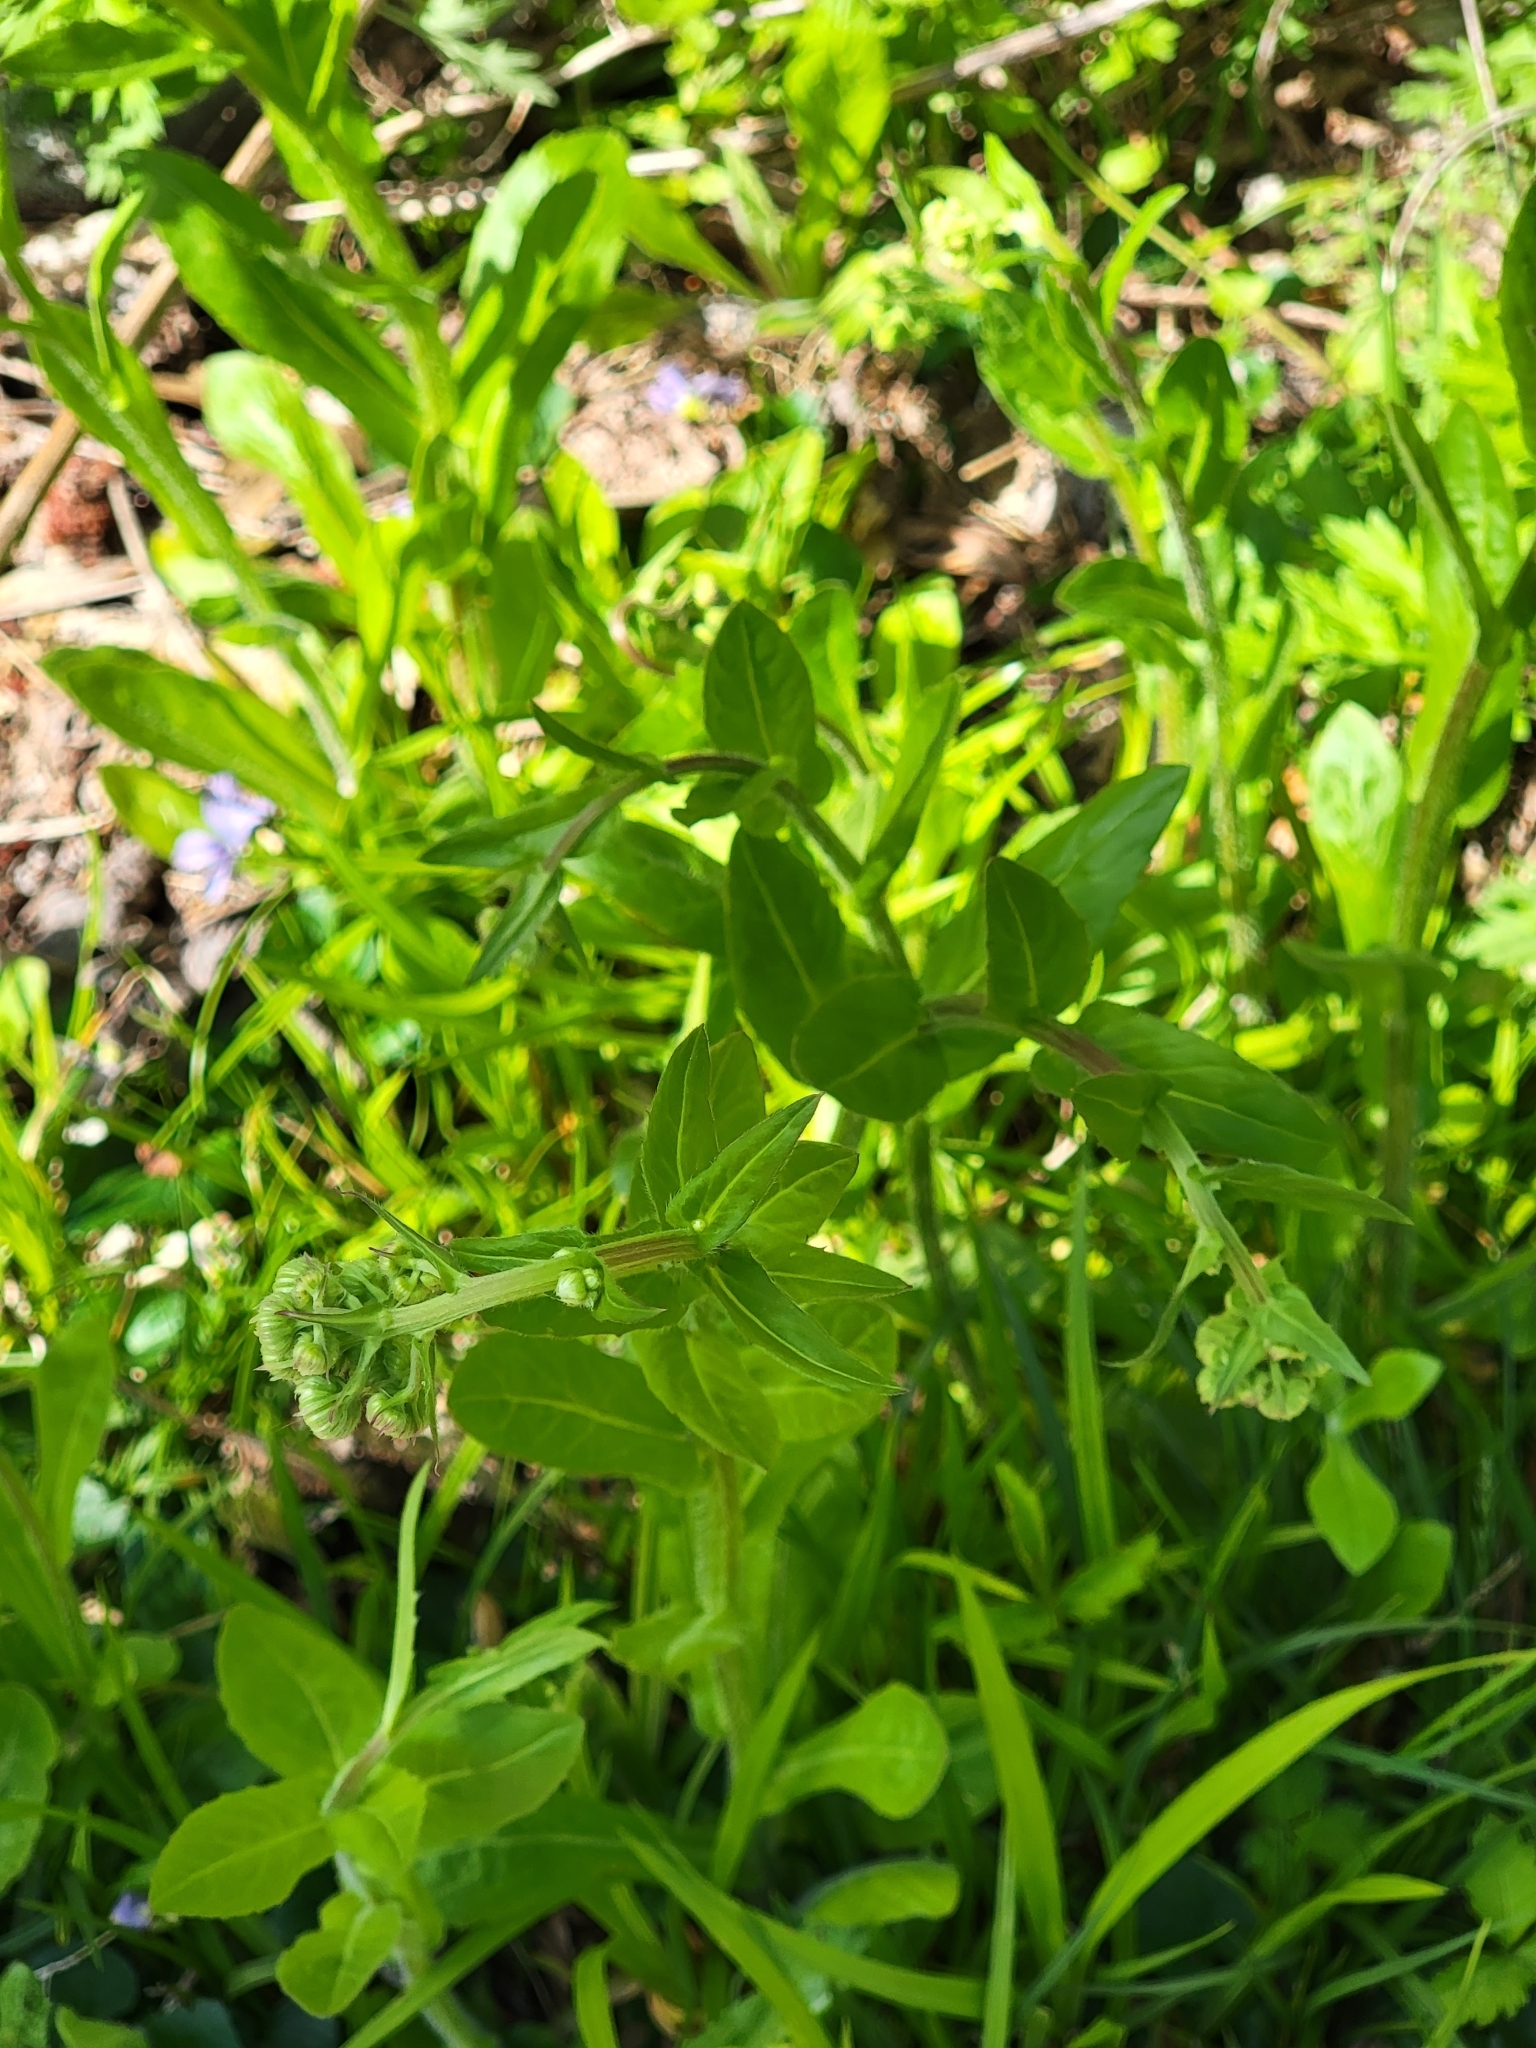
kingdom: Plantae
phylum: Tracheophyta
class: Magnoliopsida
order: Asterales
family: Asteraceae
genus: Erigeron
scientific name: Erigeron philadelphicus
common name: Robin's-plantain
